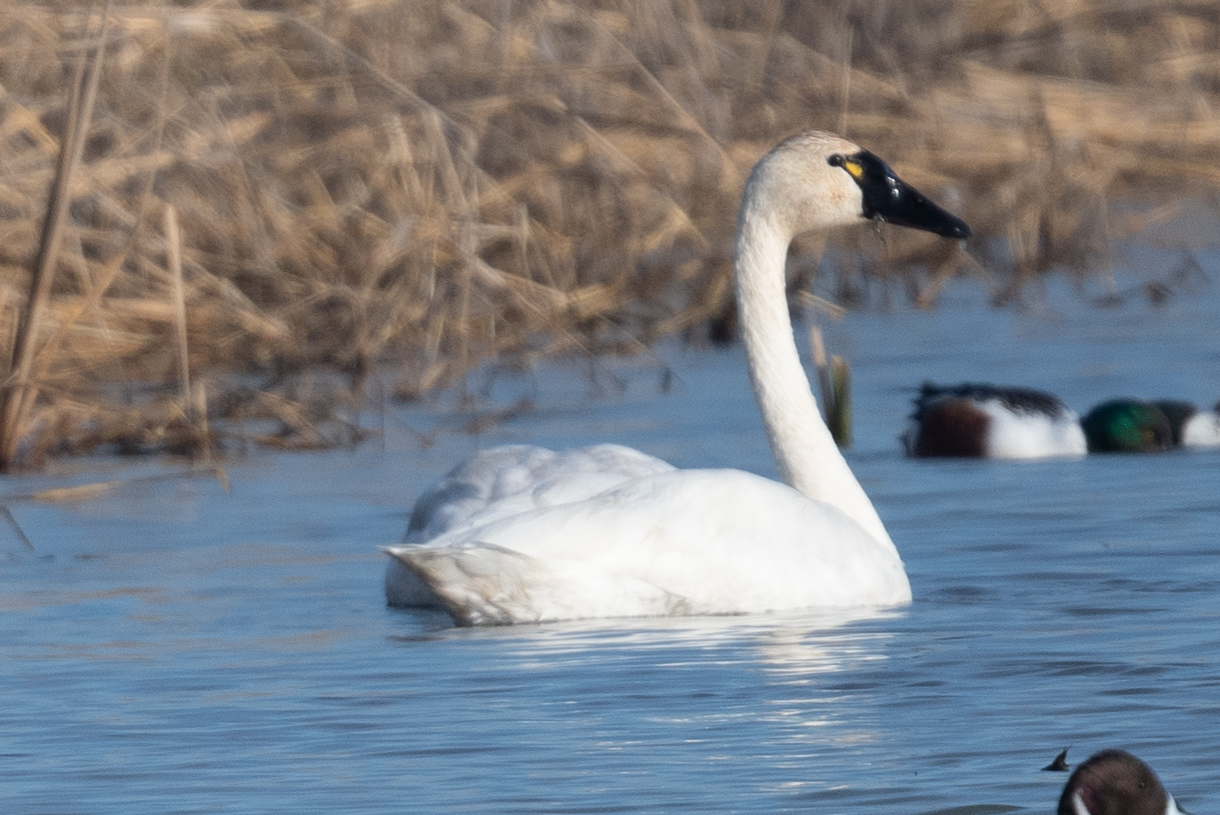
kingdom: Animalia
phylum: Chordata
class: Aves
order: Anseriformes
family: Anatidae
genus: Cygnus
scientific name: Cygnus columbianus
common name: Tundra swan
